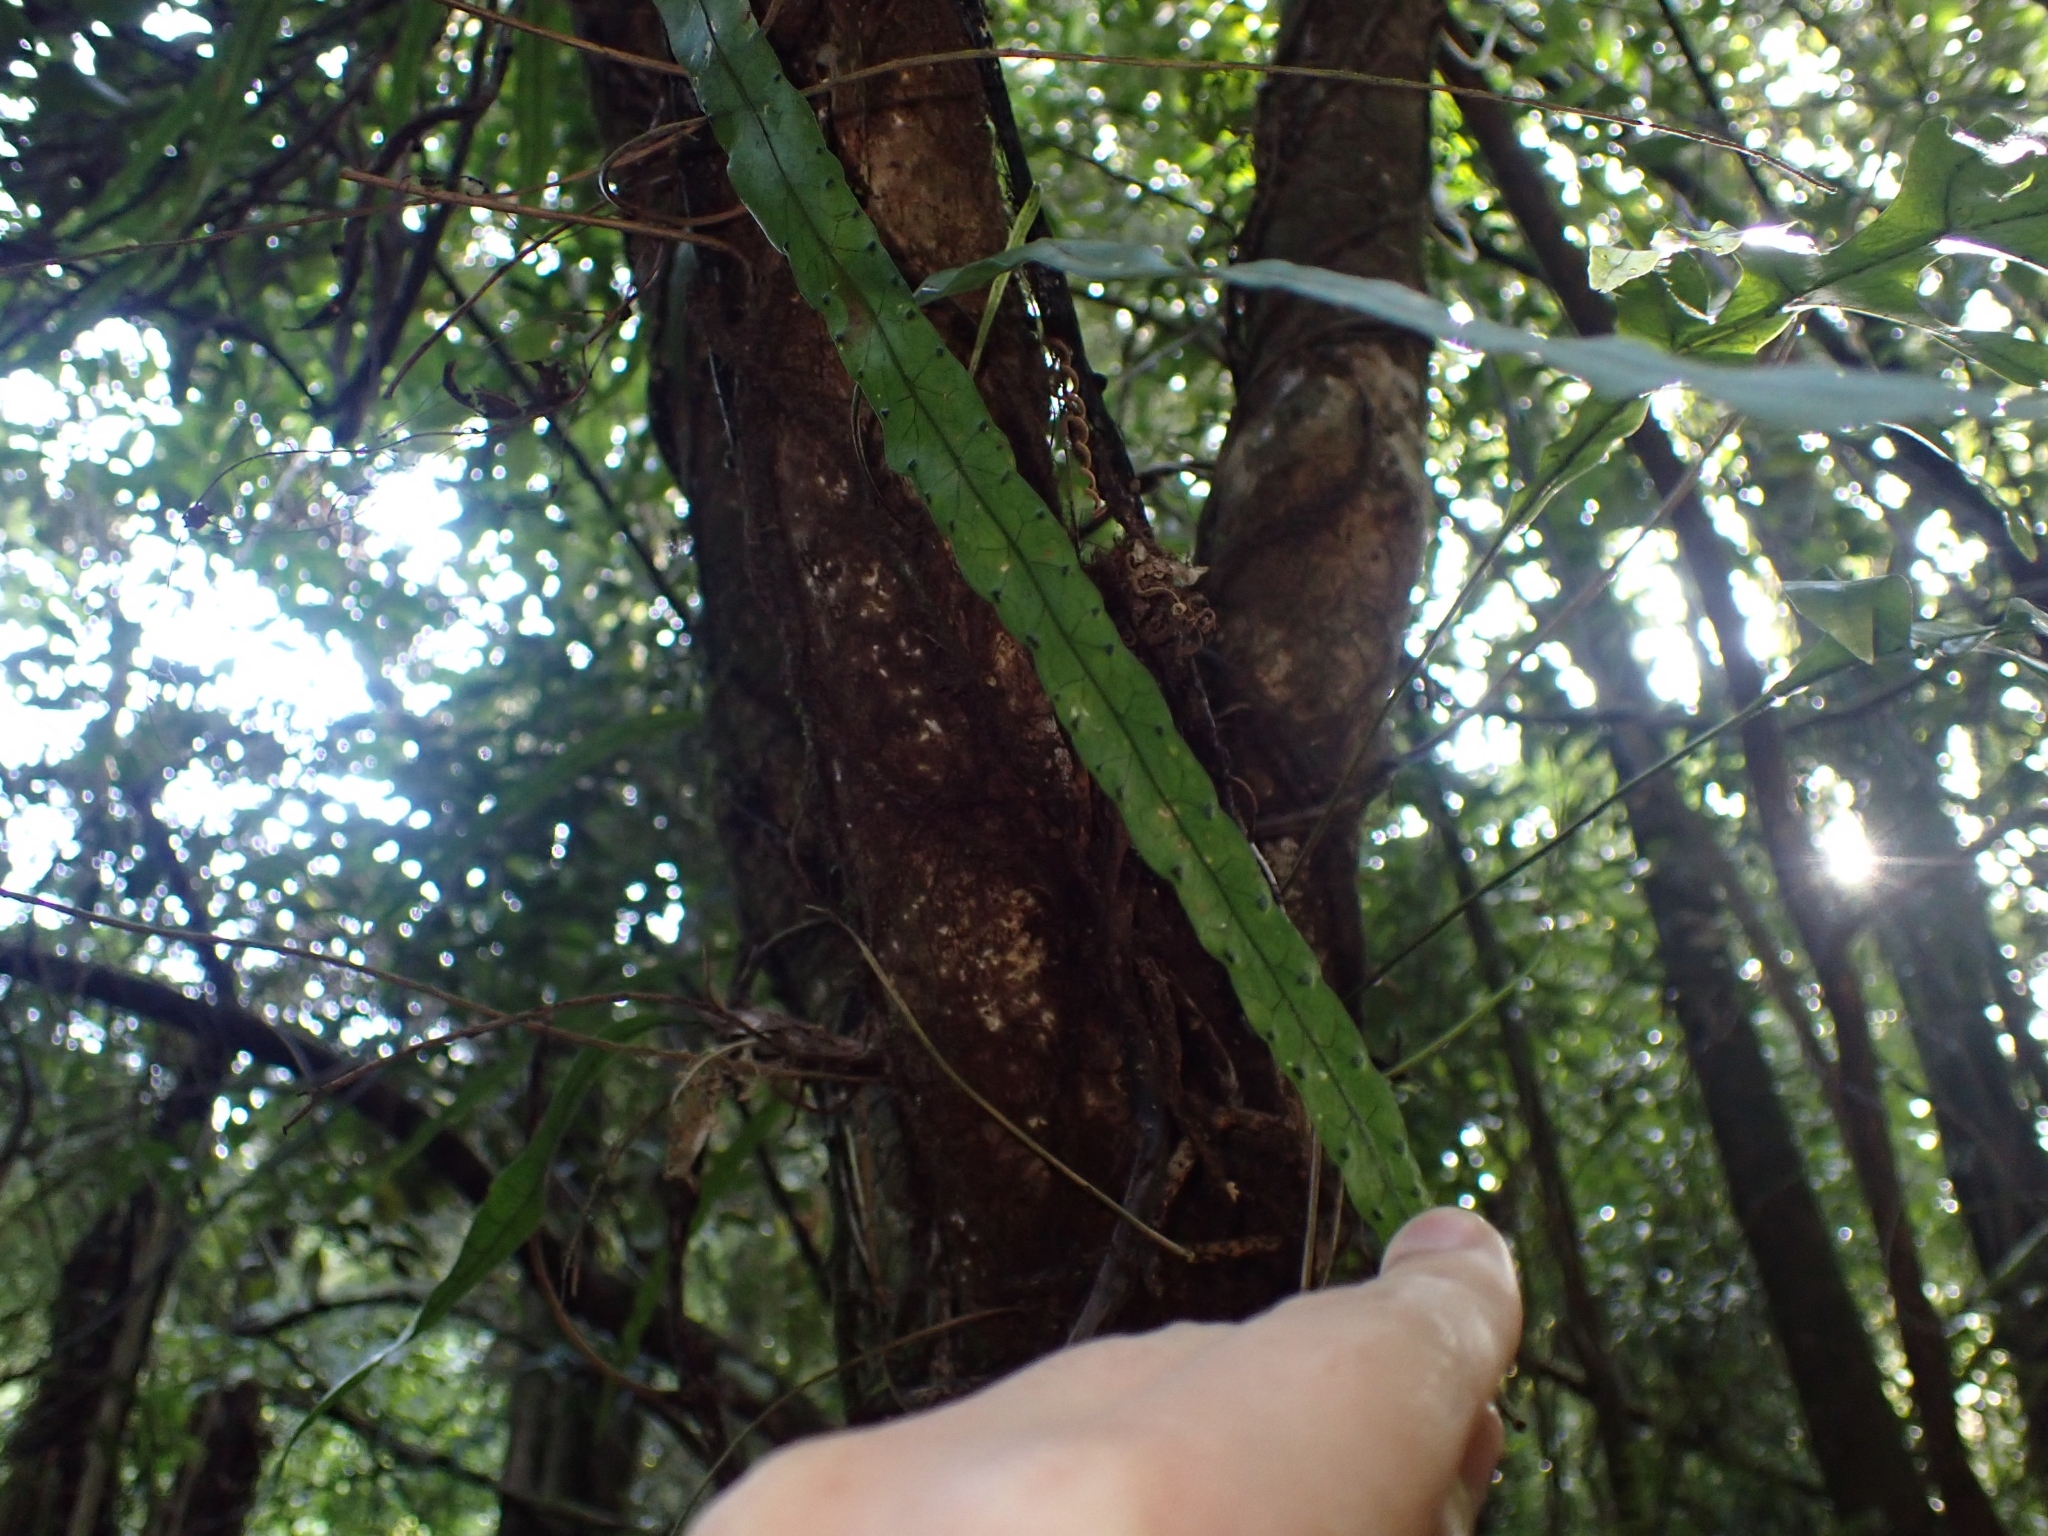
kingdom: Plantae
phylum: Tracheophyta
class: Polypodiopsida
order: Polypodiales
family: Polypodiaceae
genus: Lecanopteris
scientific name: Lecanopteris scandens
